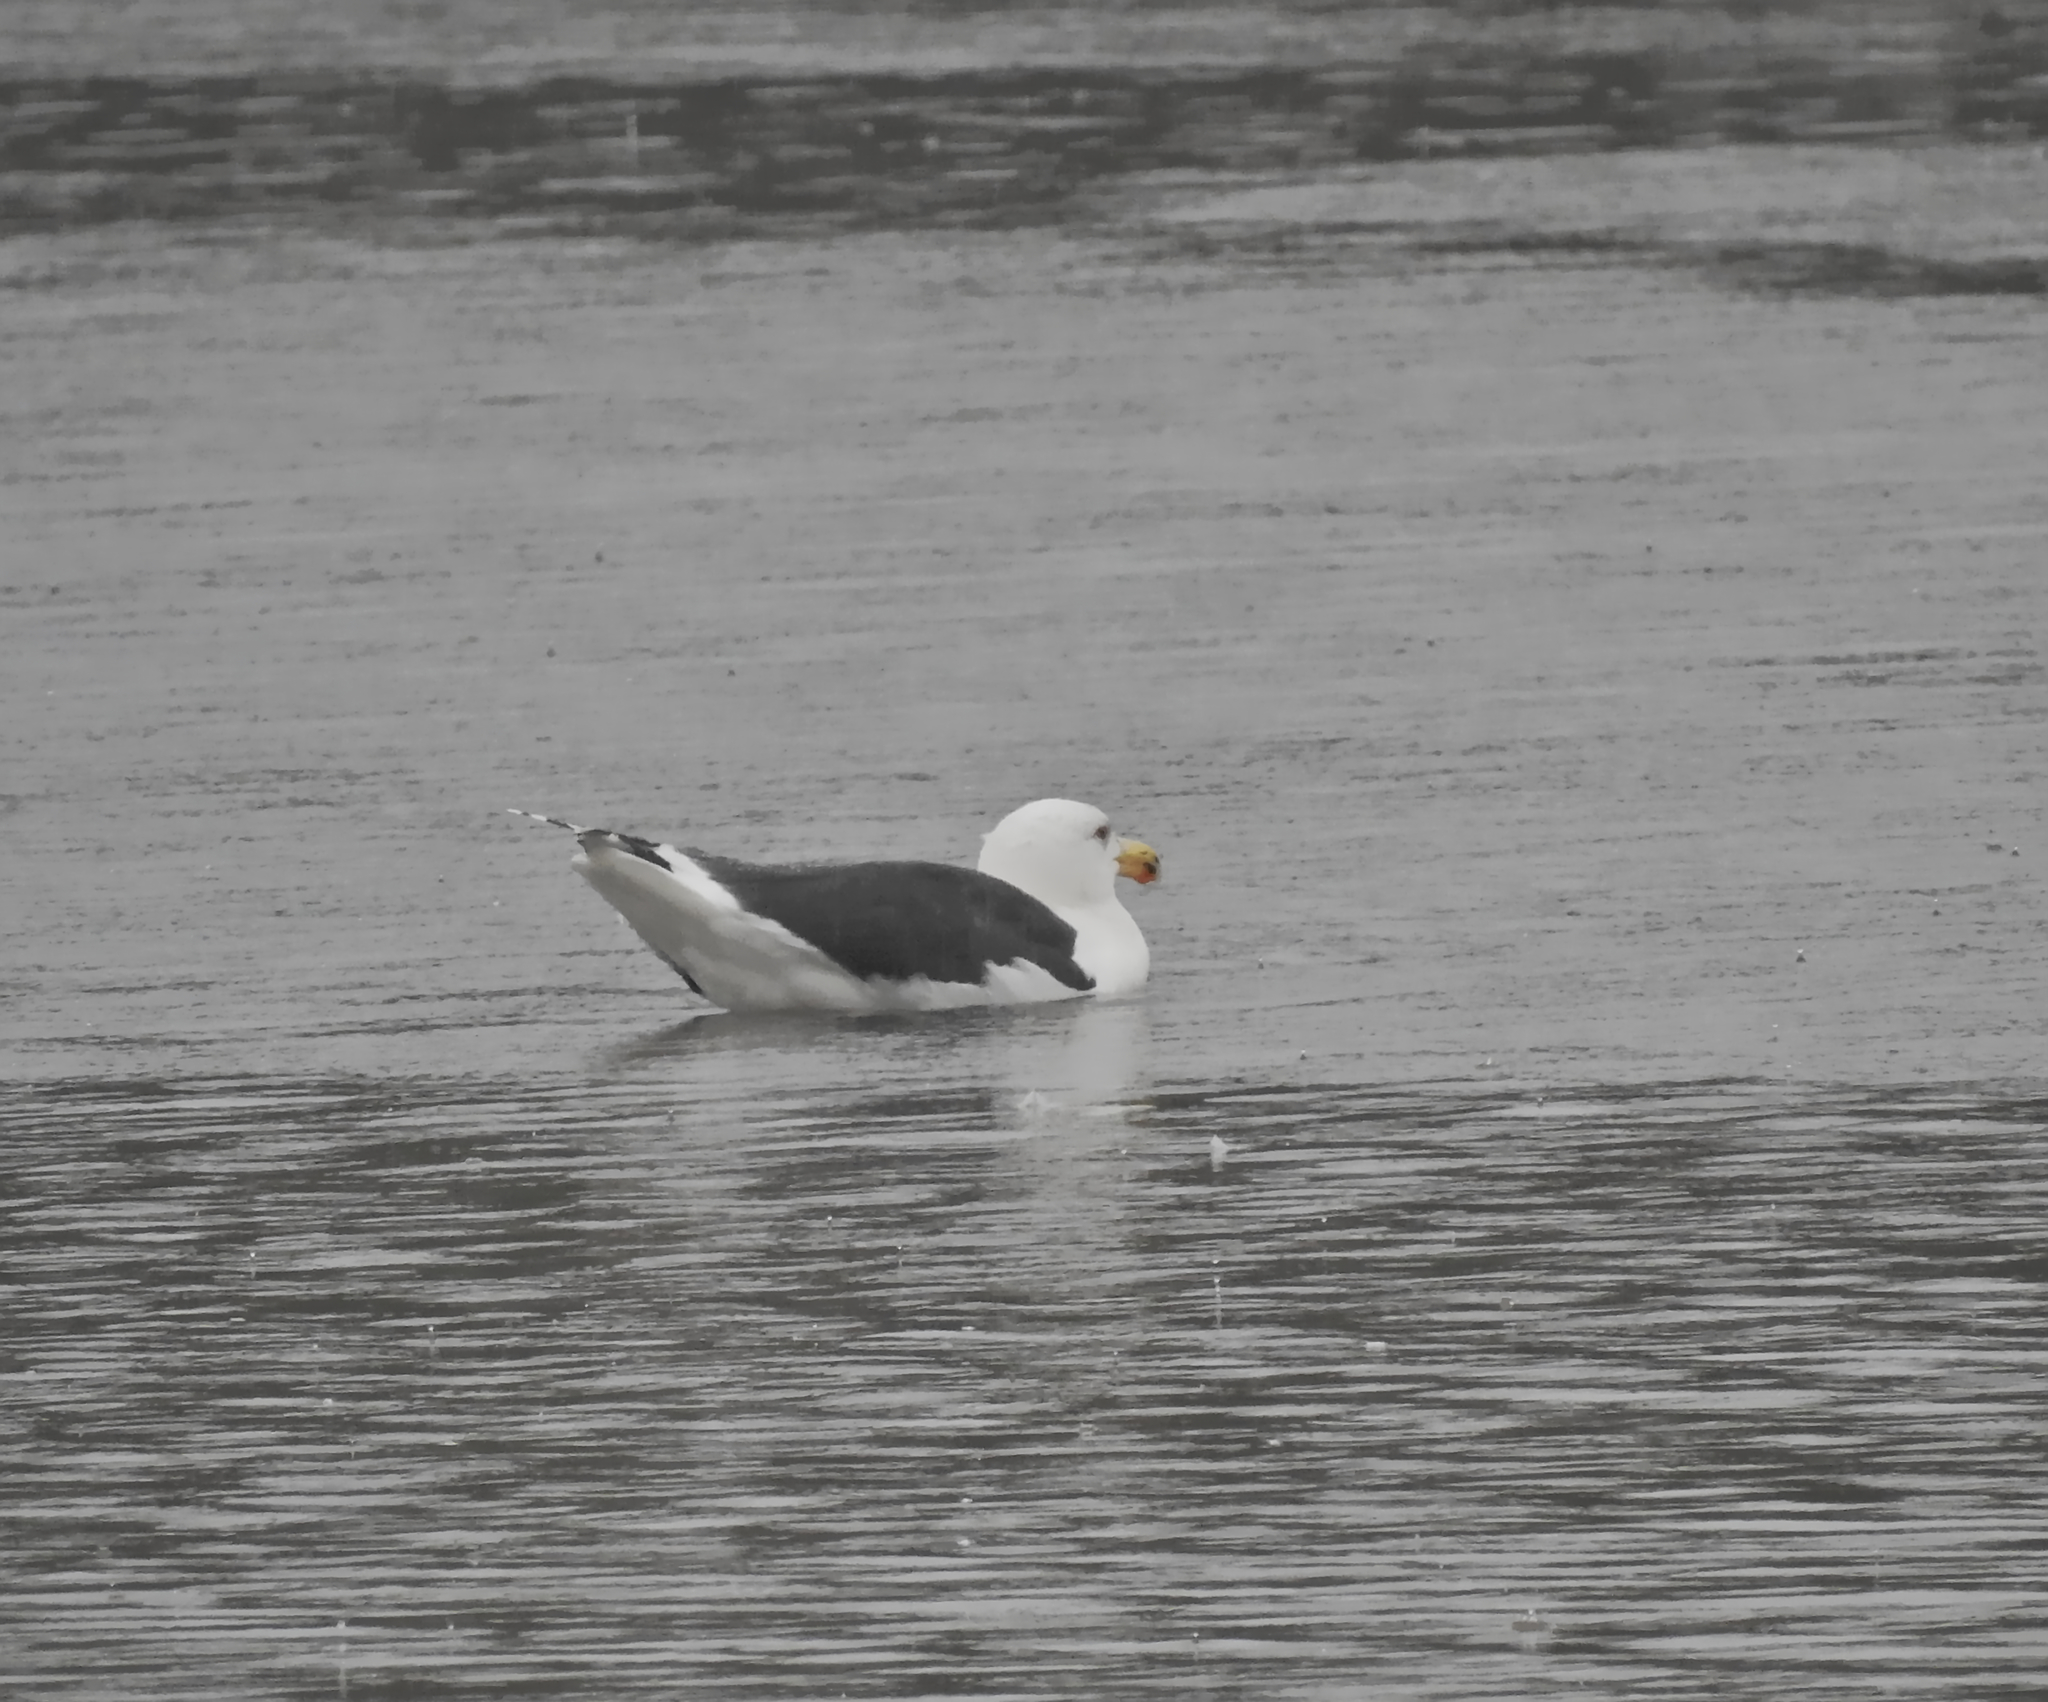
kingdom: Animalia
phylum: Chordata
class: Aves
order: Charadriiformes
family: Laridae
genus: Larus
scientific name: Larus marinus
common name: Great black-backed gull
